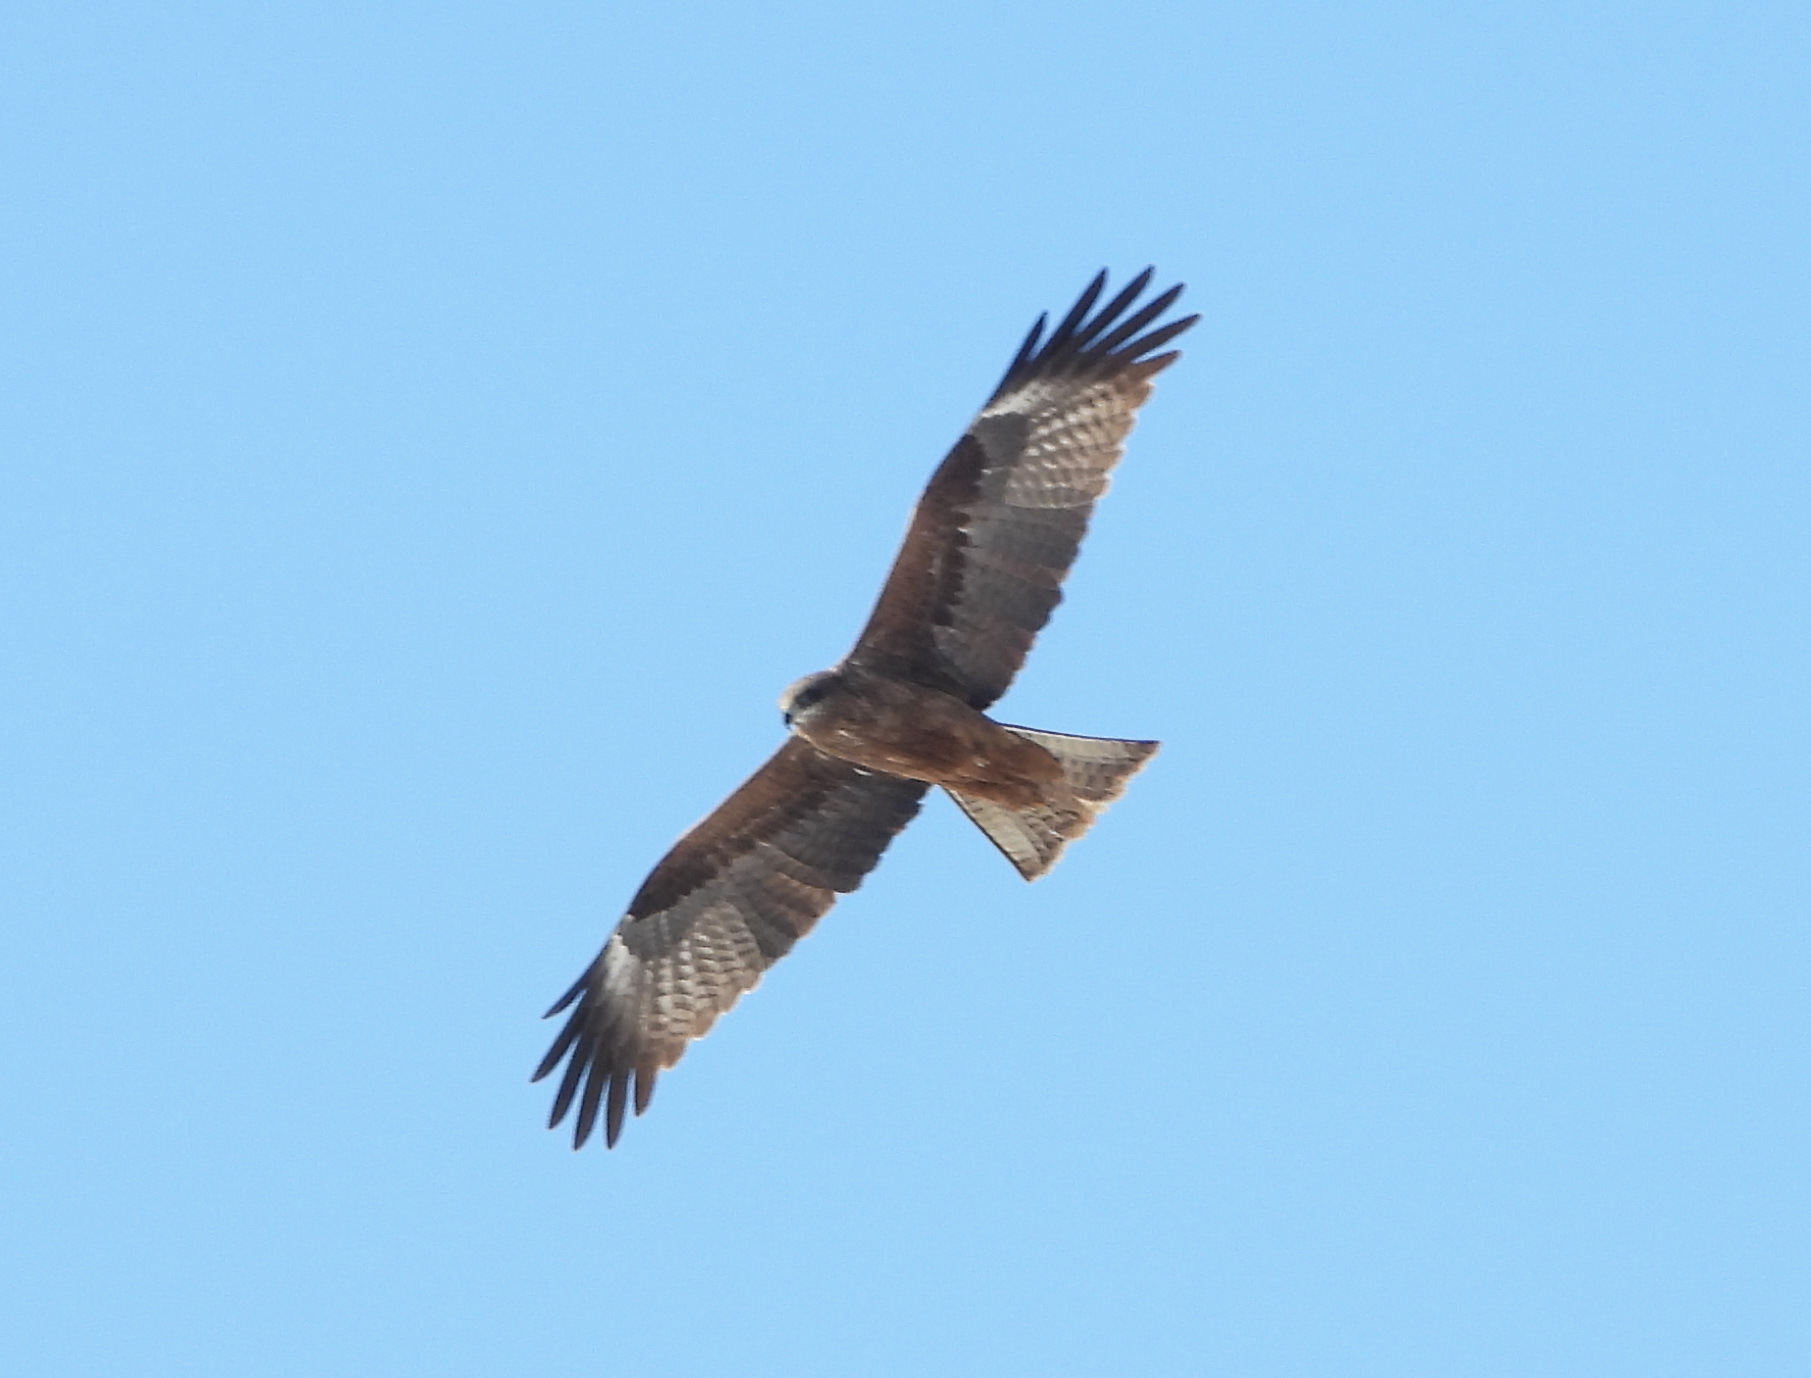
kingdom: Animalia
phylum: Chordata
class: Aves
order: Accipitriformes
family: Accipitridae
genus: Milvus
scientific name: Milvus migrans
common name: Black kite
